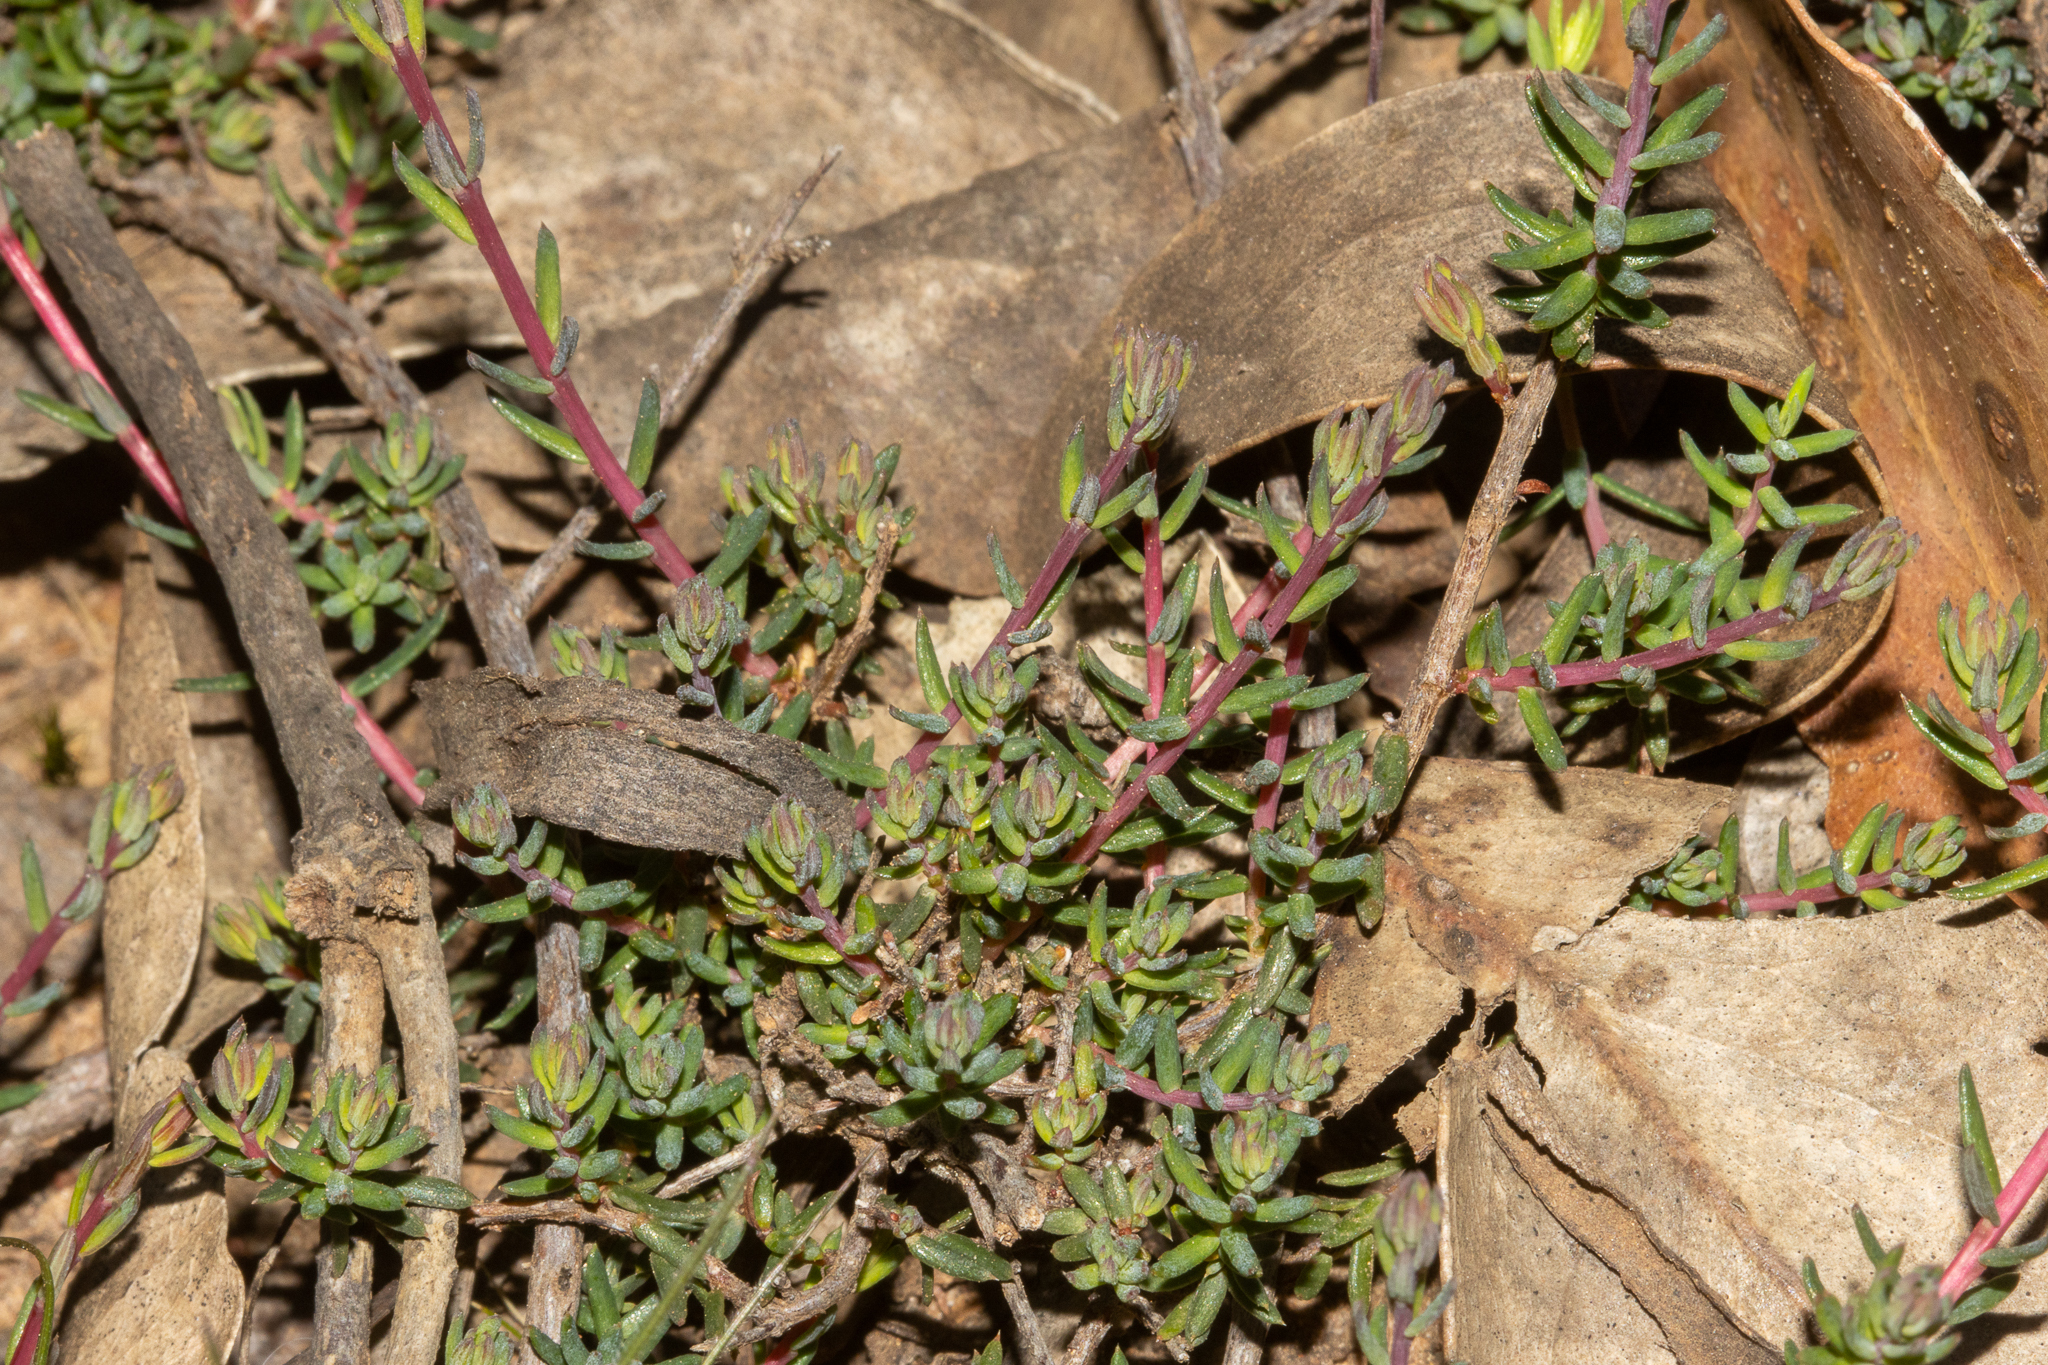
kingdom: Plantae
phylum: Tracheophyta
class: Magnoliopsida
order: Dilleniales
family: Dilleniaceae
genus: Hibbertia
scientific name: Hibbertia obtusibracteata
